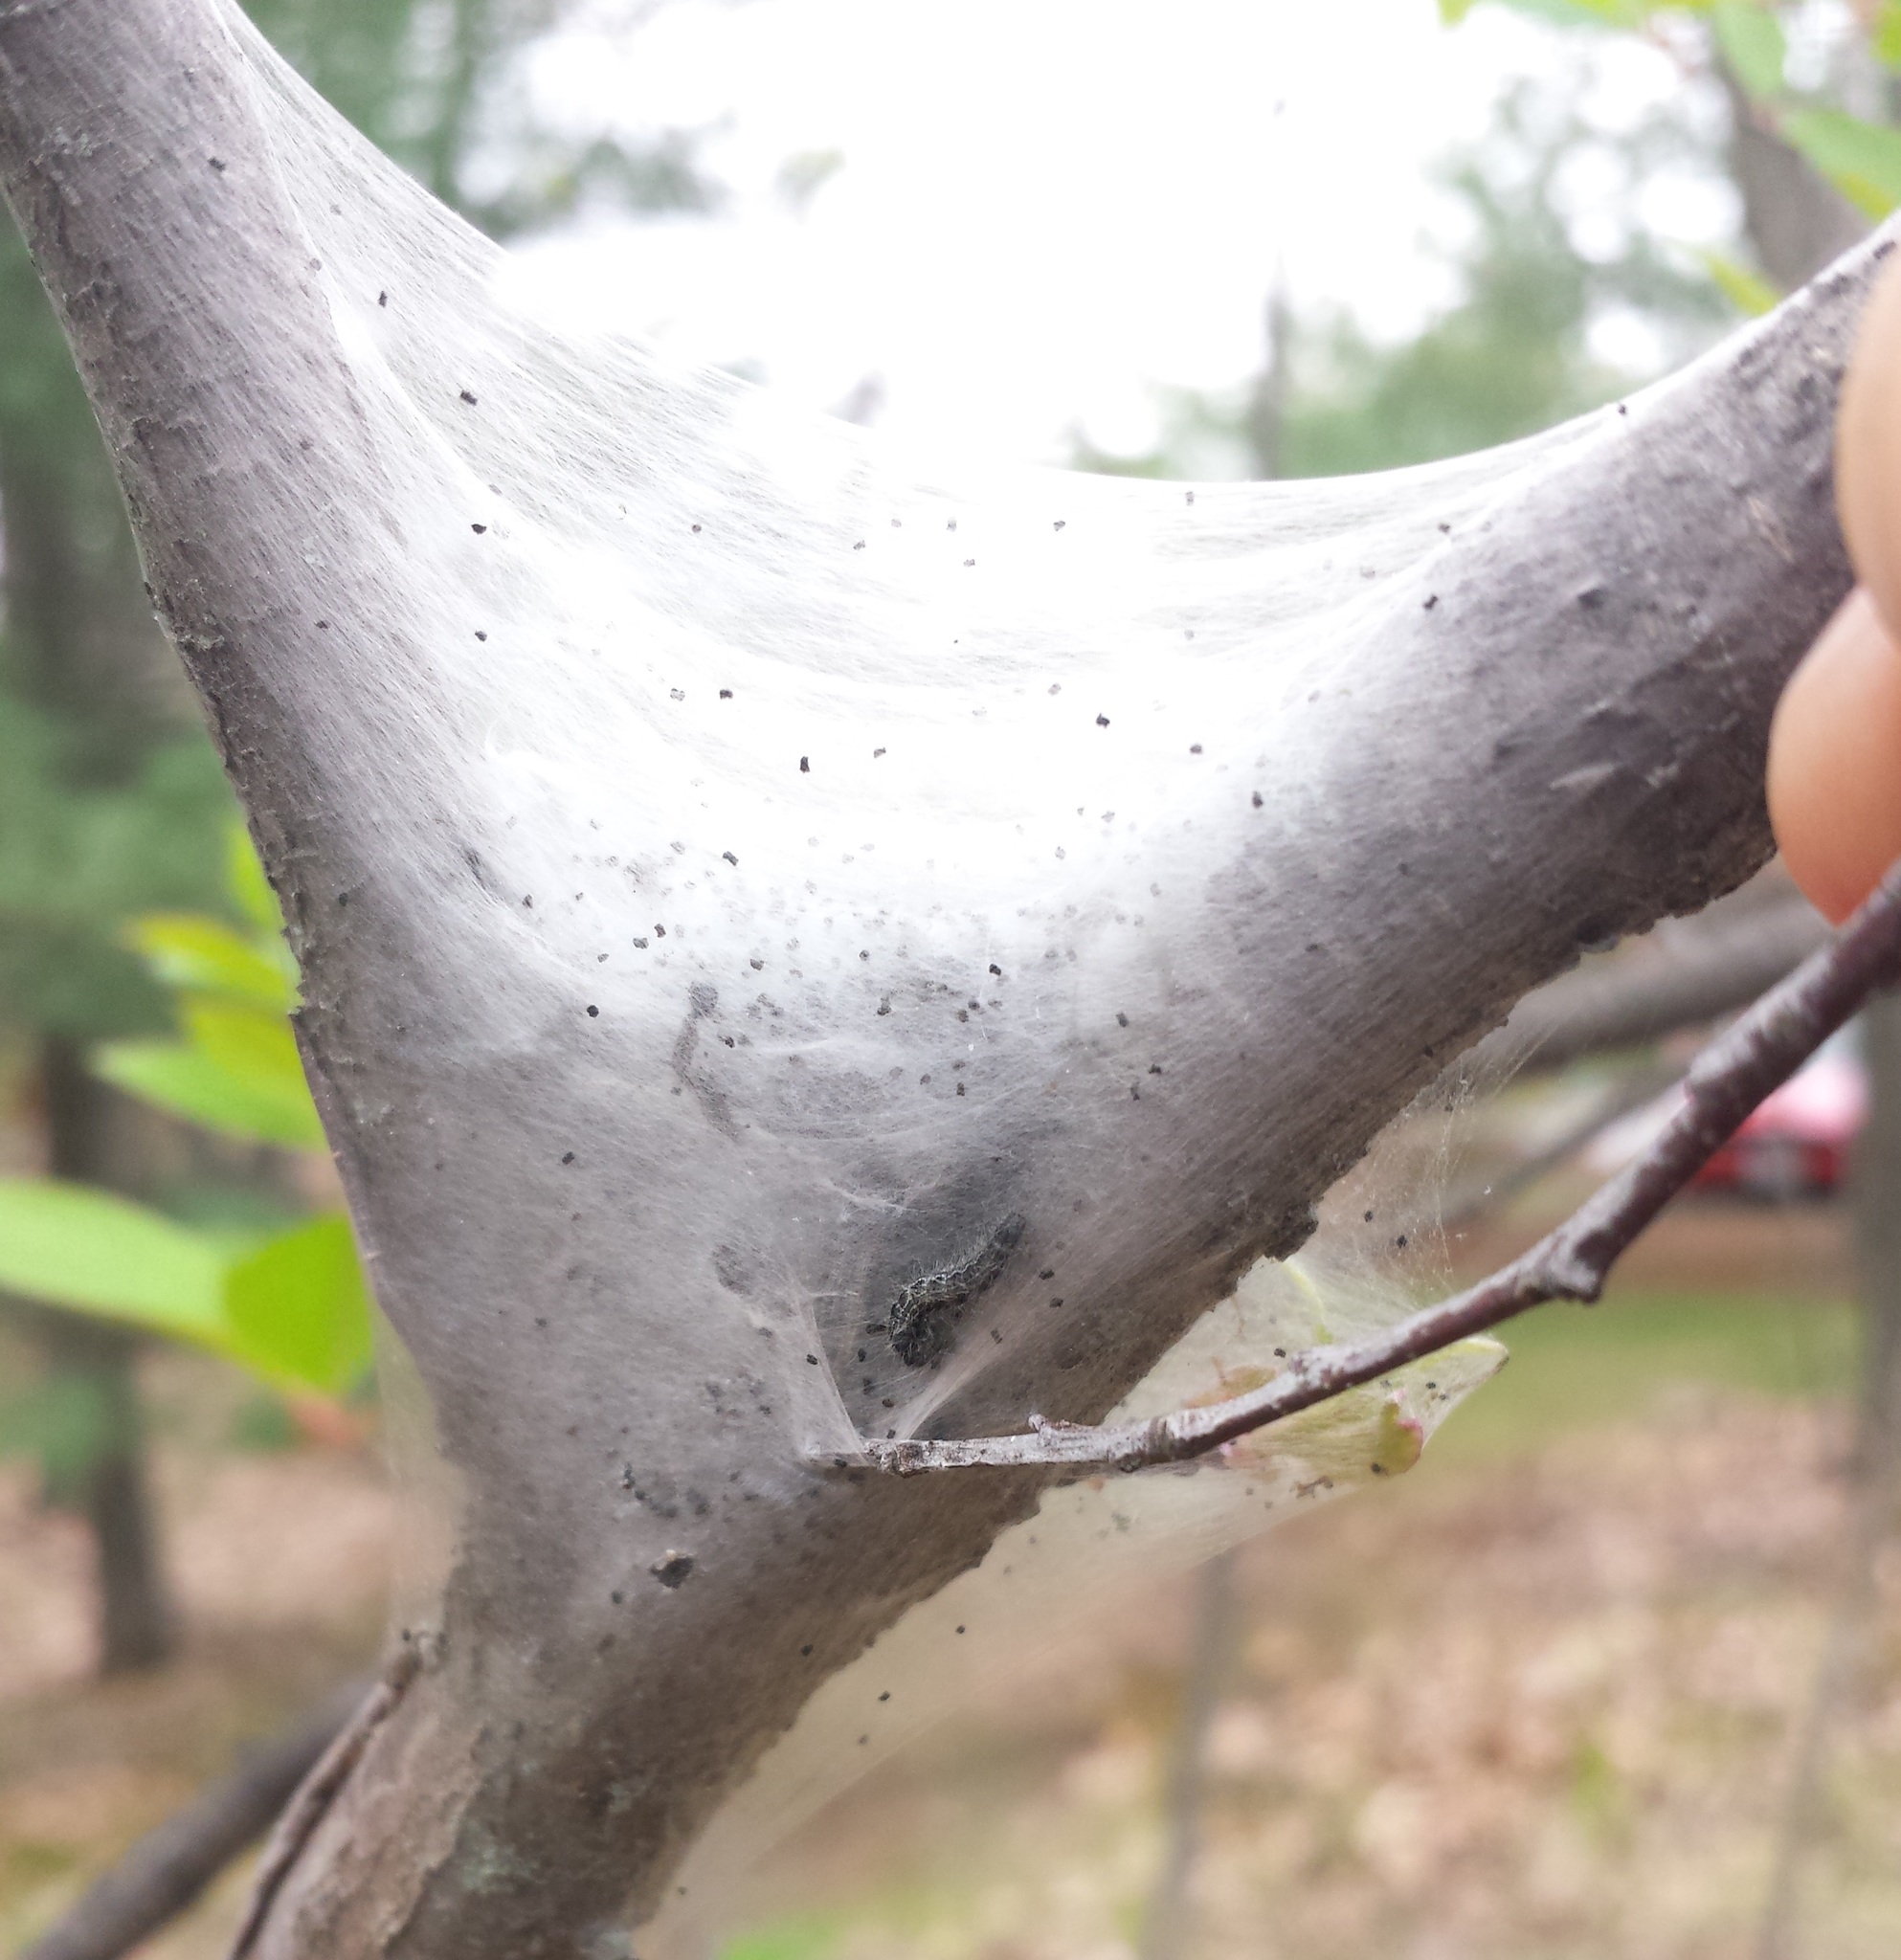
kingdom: Animalia
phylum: Arthropoda
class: Insecta
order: Lepidoptera
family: Lasiocampidae
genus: Malacosoma
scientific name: Malacosoma americana
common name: Eastern tent caterpillar moth
